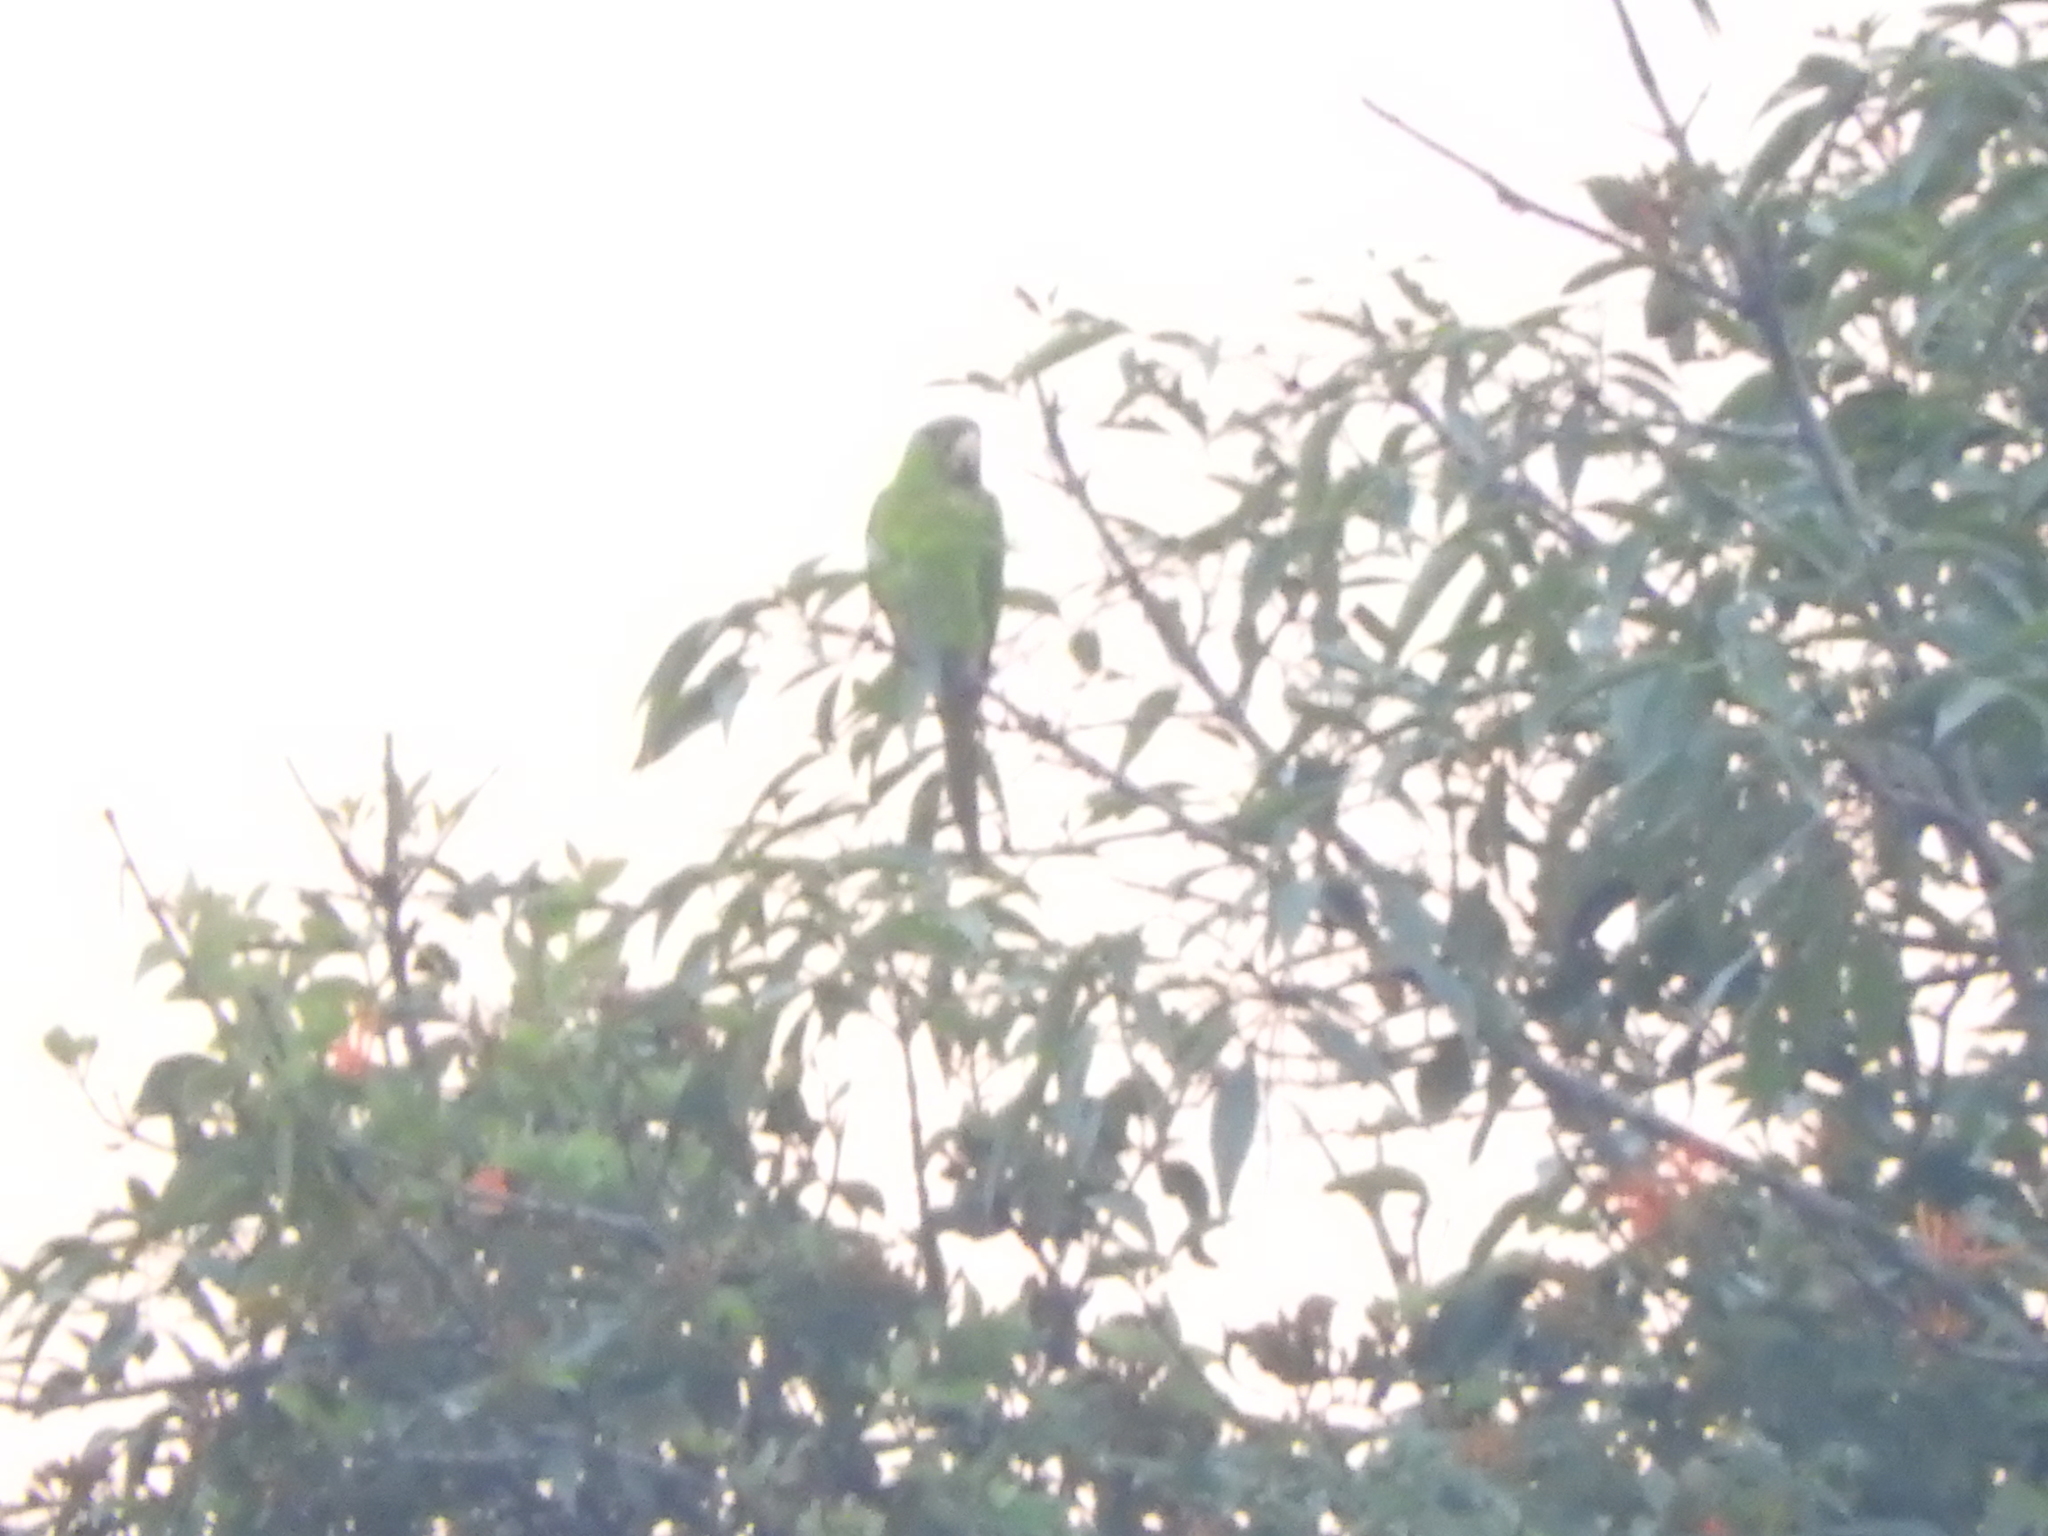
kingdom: Animalia
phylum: Chordata
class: Aves
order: Psittaciformes
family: Psittacidae
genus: Aratinga
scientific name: Aratinga holochlora
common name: Green parakeet
